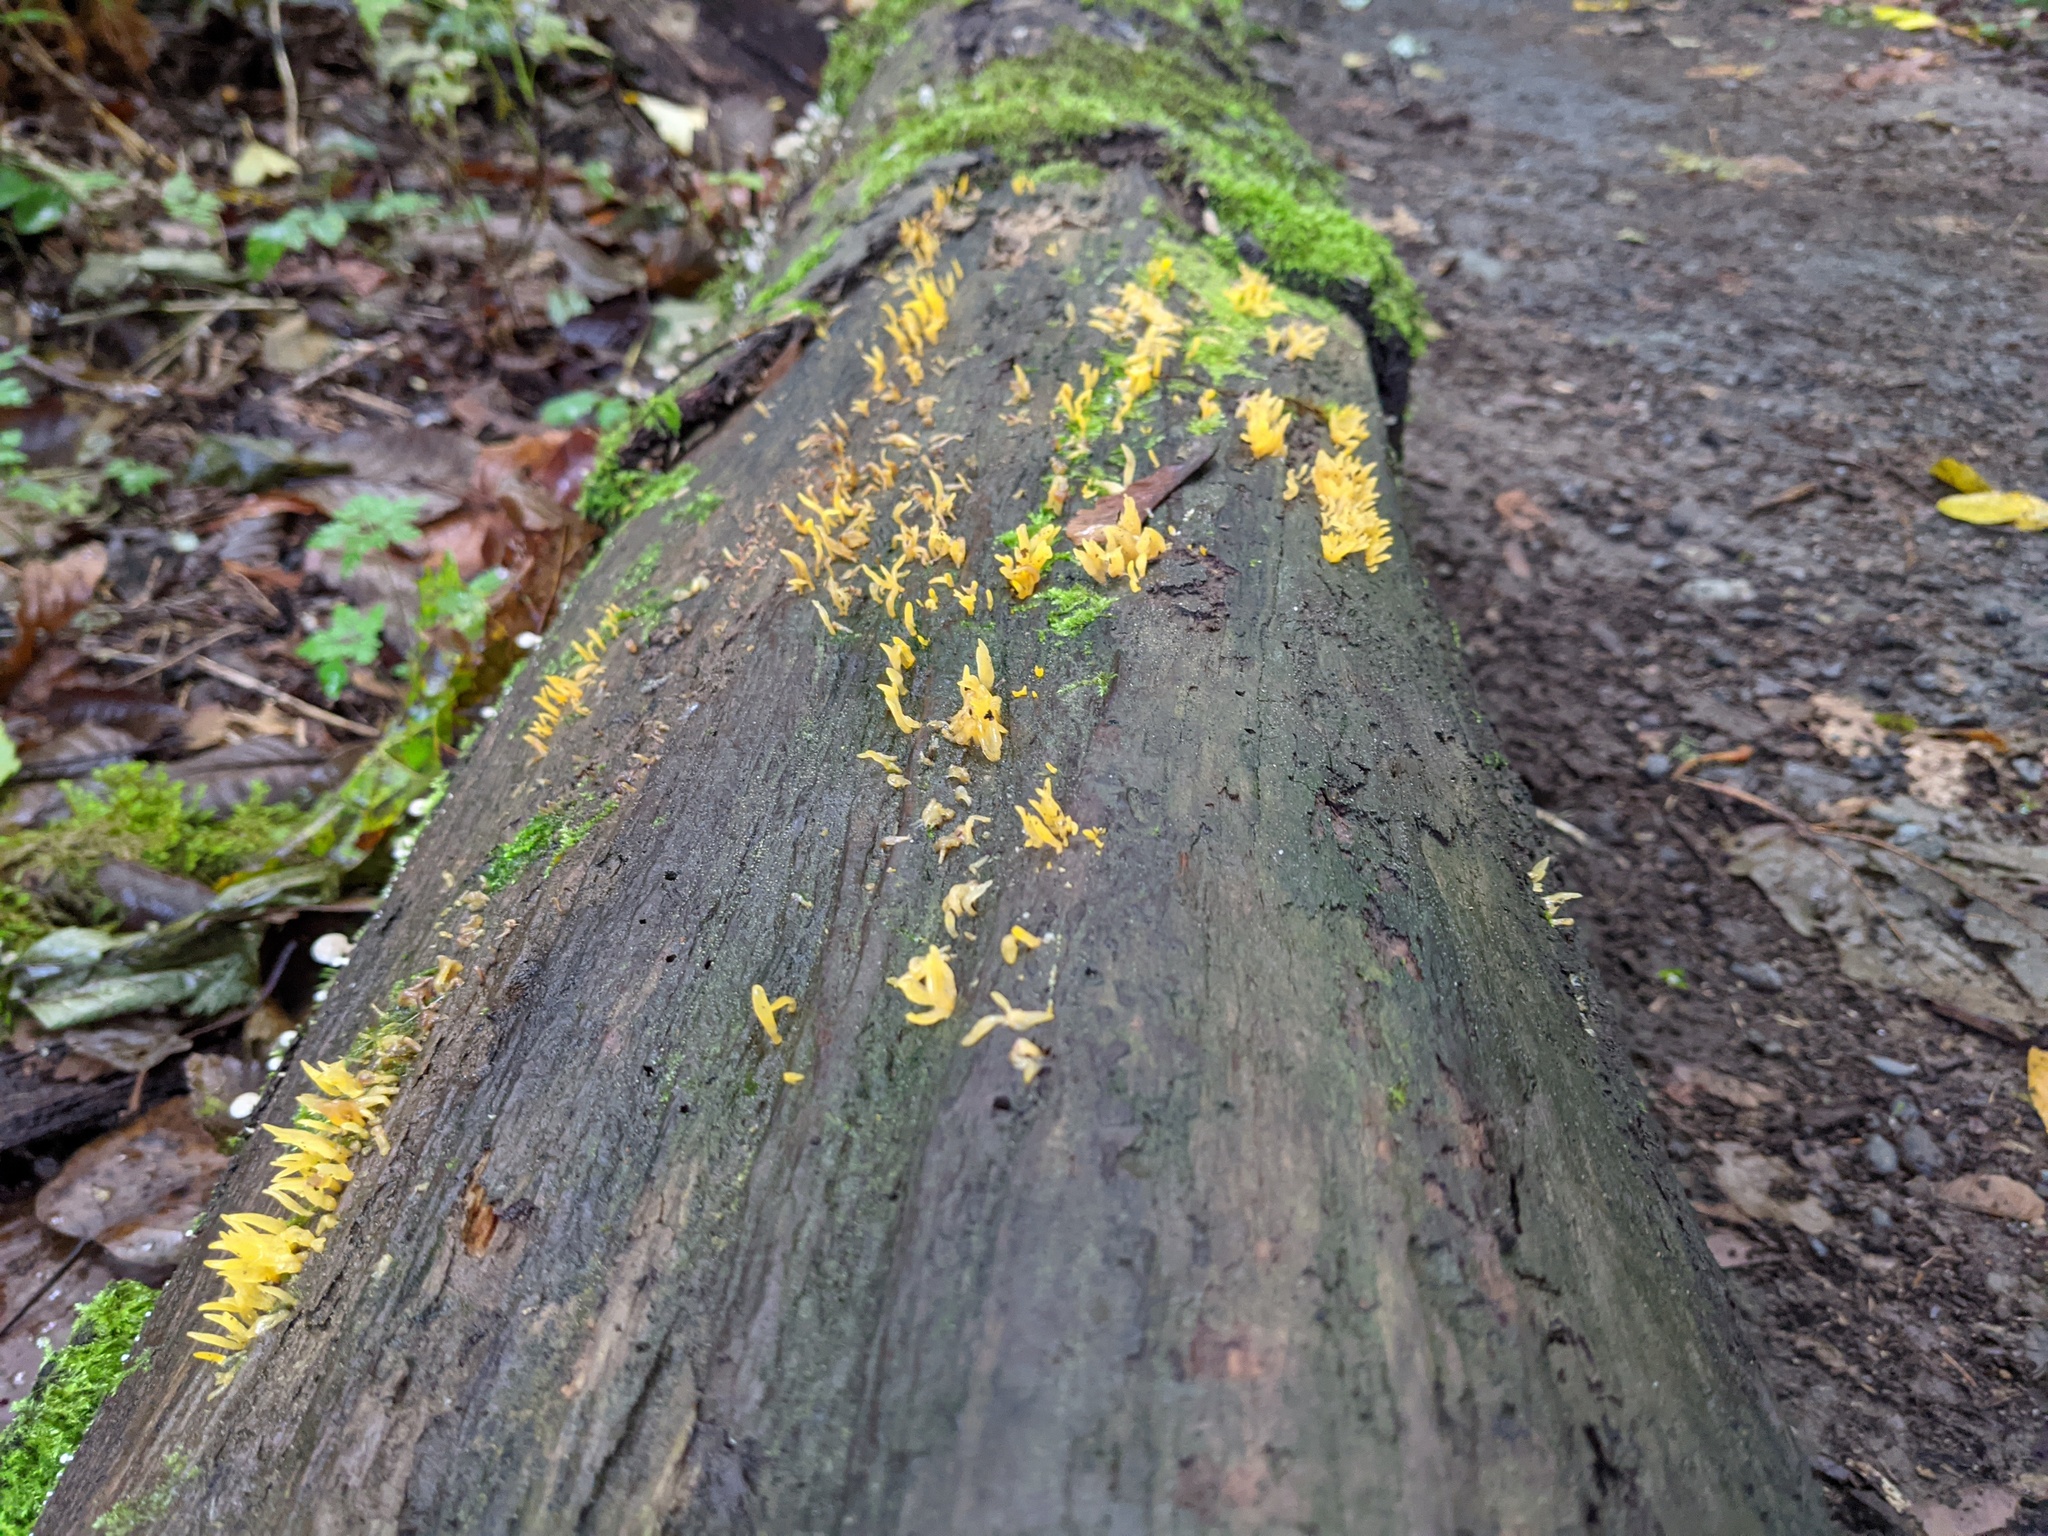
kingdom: Fungi
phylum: Basidiomycota
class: Dacrymycetes
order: Dacrymycetales
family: Dacrymycetaceae
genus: Calocera
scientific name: Calocera cornea
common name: Small stagshorn
